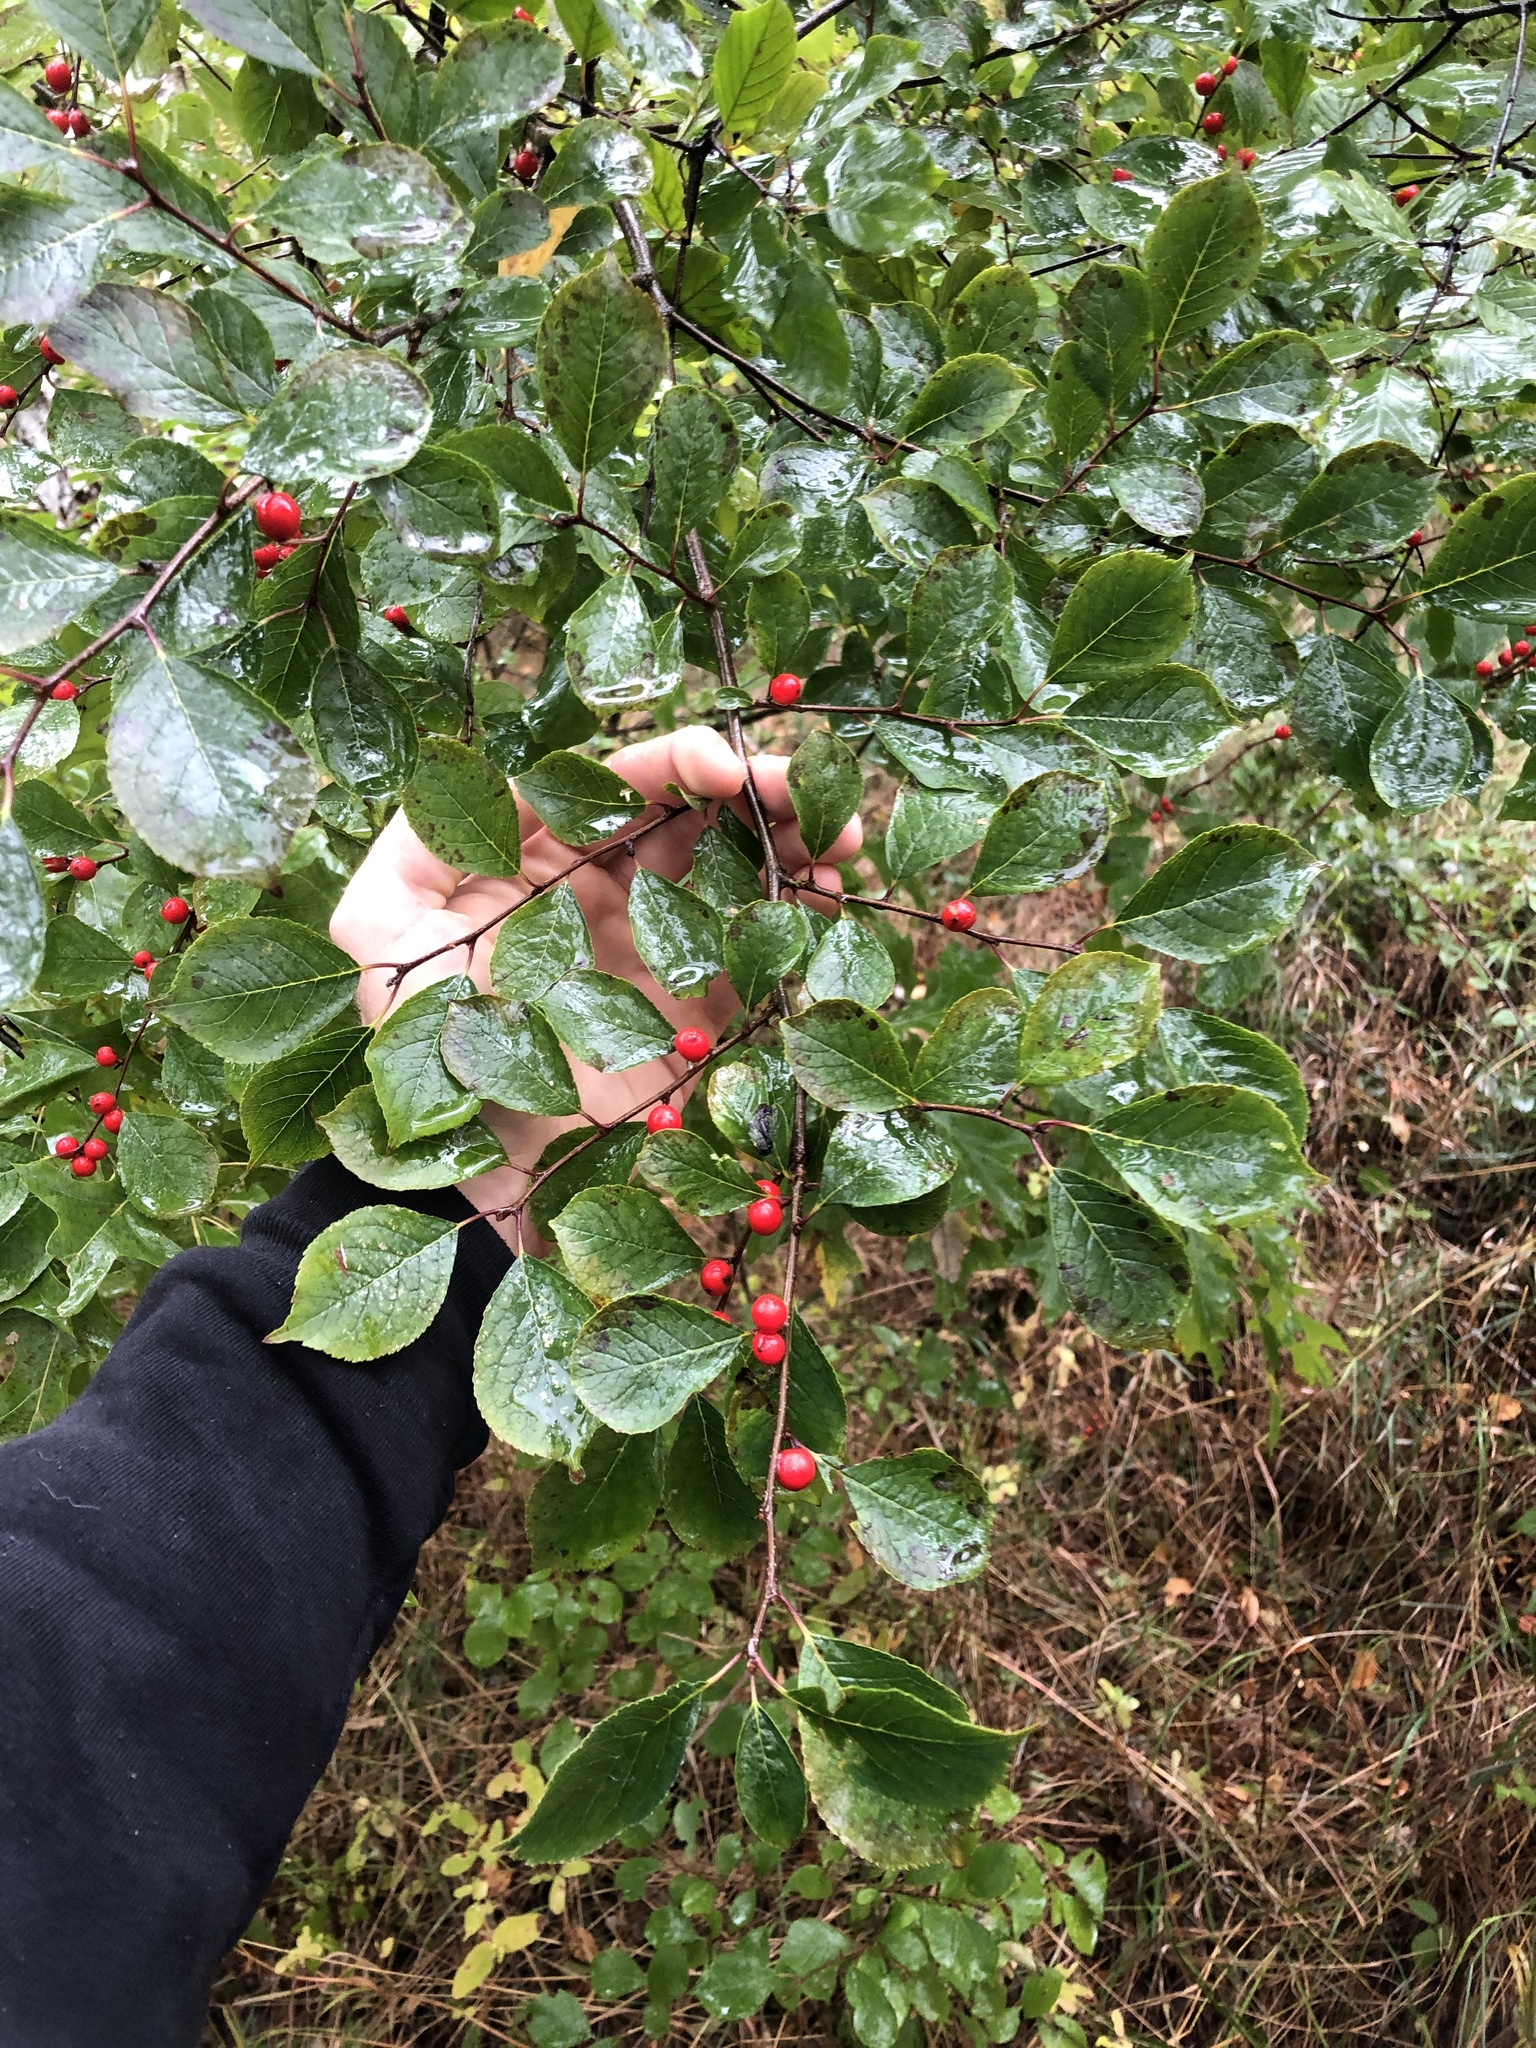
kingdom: Plantae
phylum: Tracheophyta
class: Magnoliopsida
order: Aquifoliales
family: Aquifoliaceae
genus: Ilex
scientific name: Ilex verticillata
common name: Virginia winterberry
